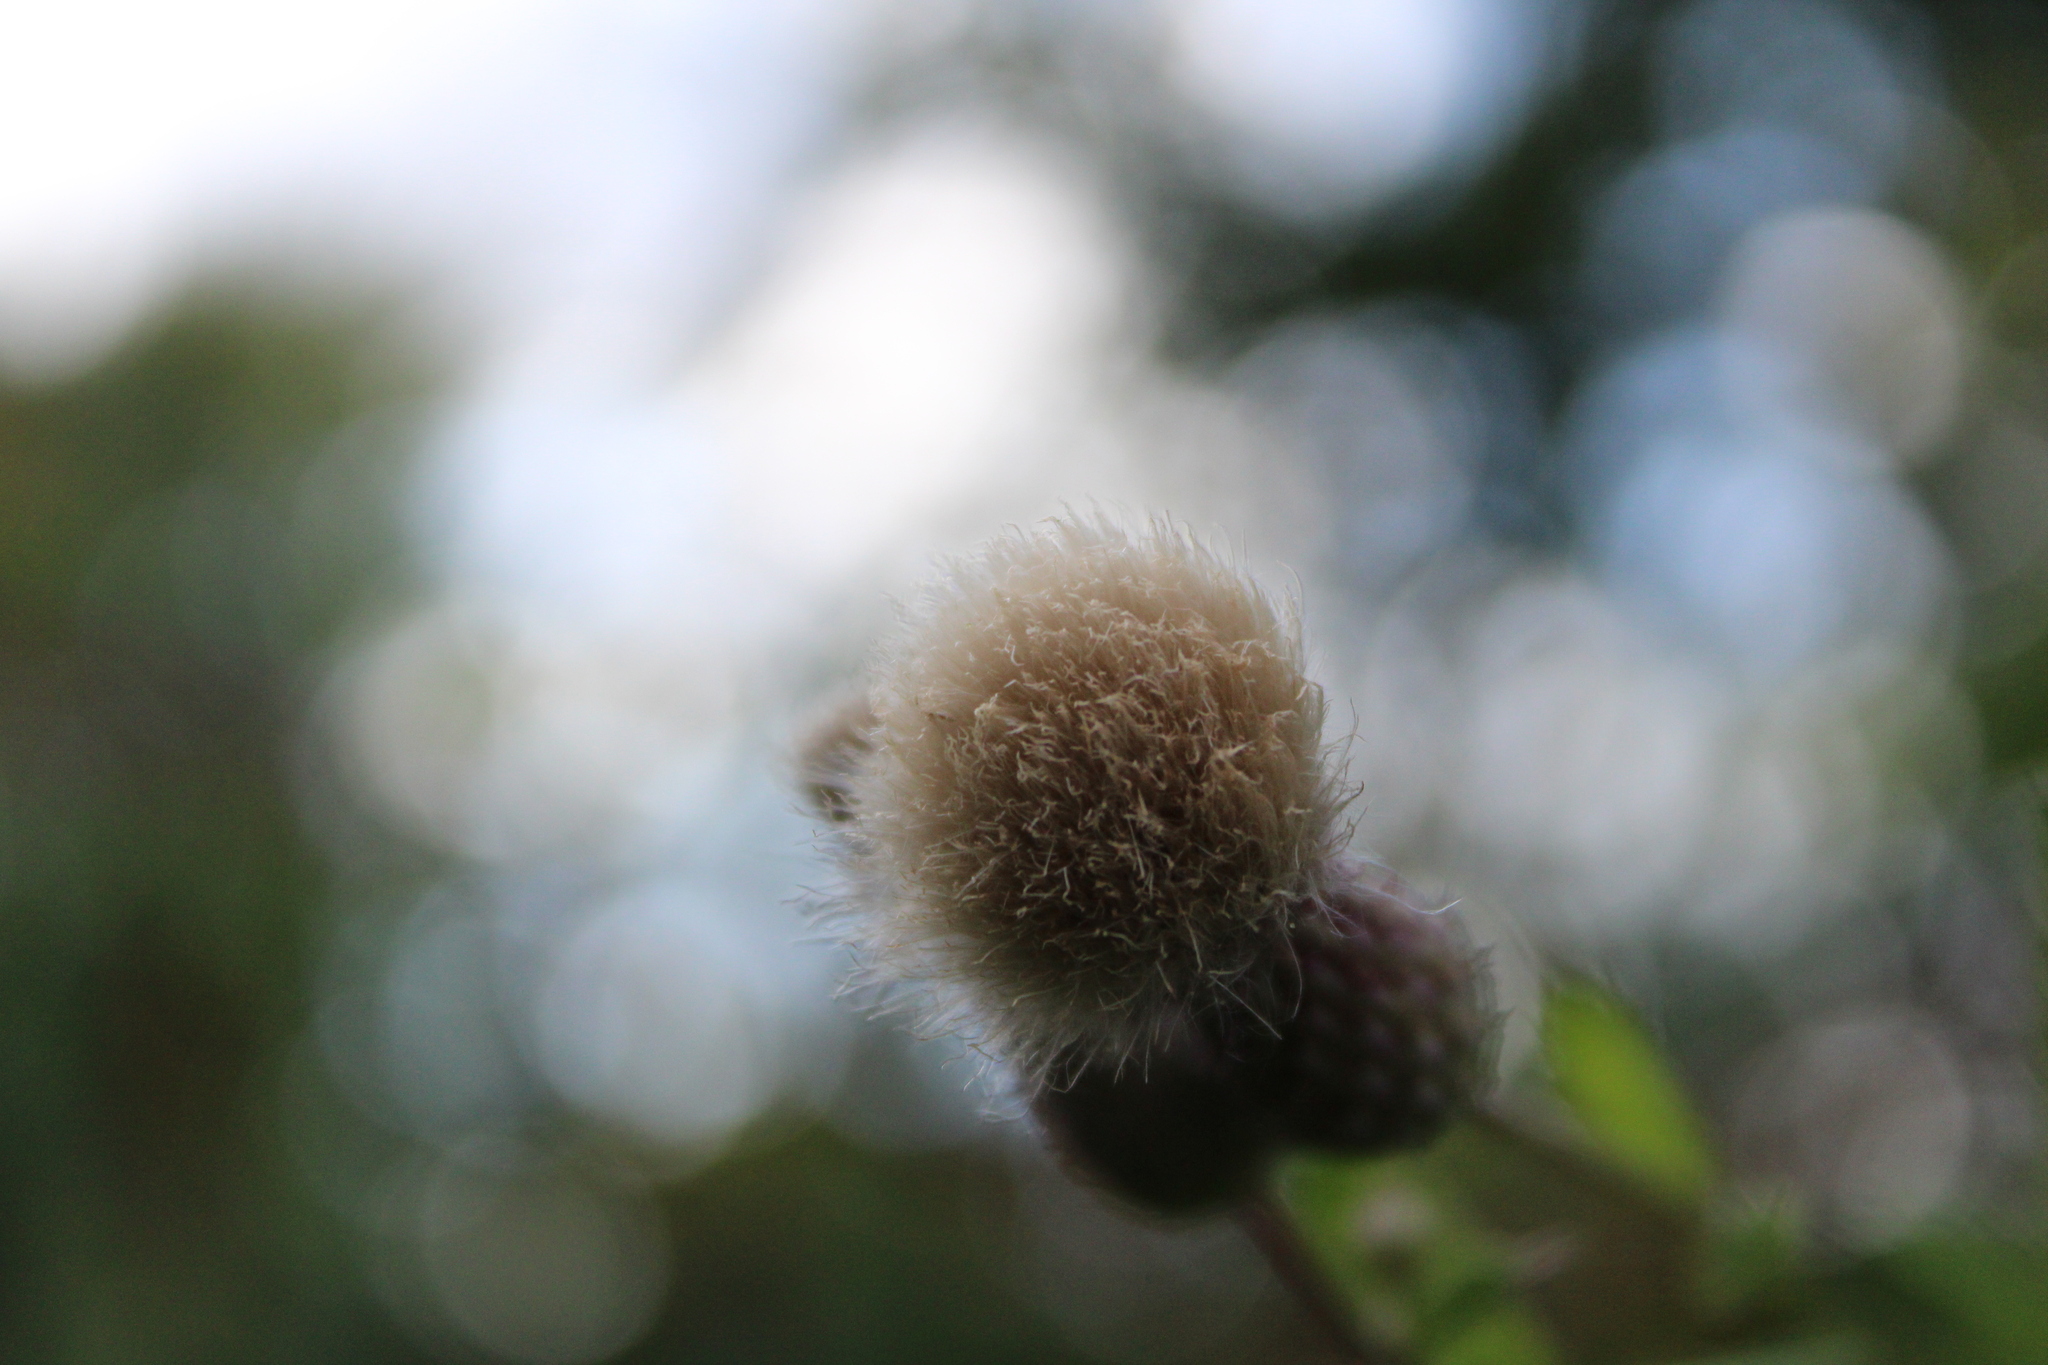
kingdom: Plantae
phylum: Tracheophyta
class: Magnoliopsida
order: Asterales
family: Asteraceae
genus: Cirsium
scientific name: Cirsium arvense
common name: Creeping thistle
